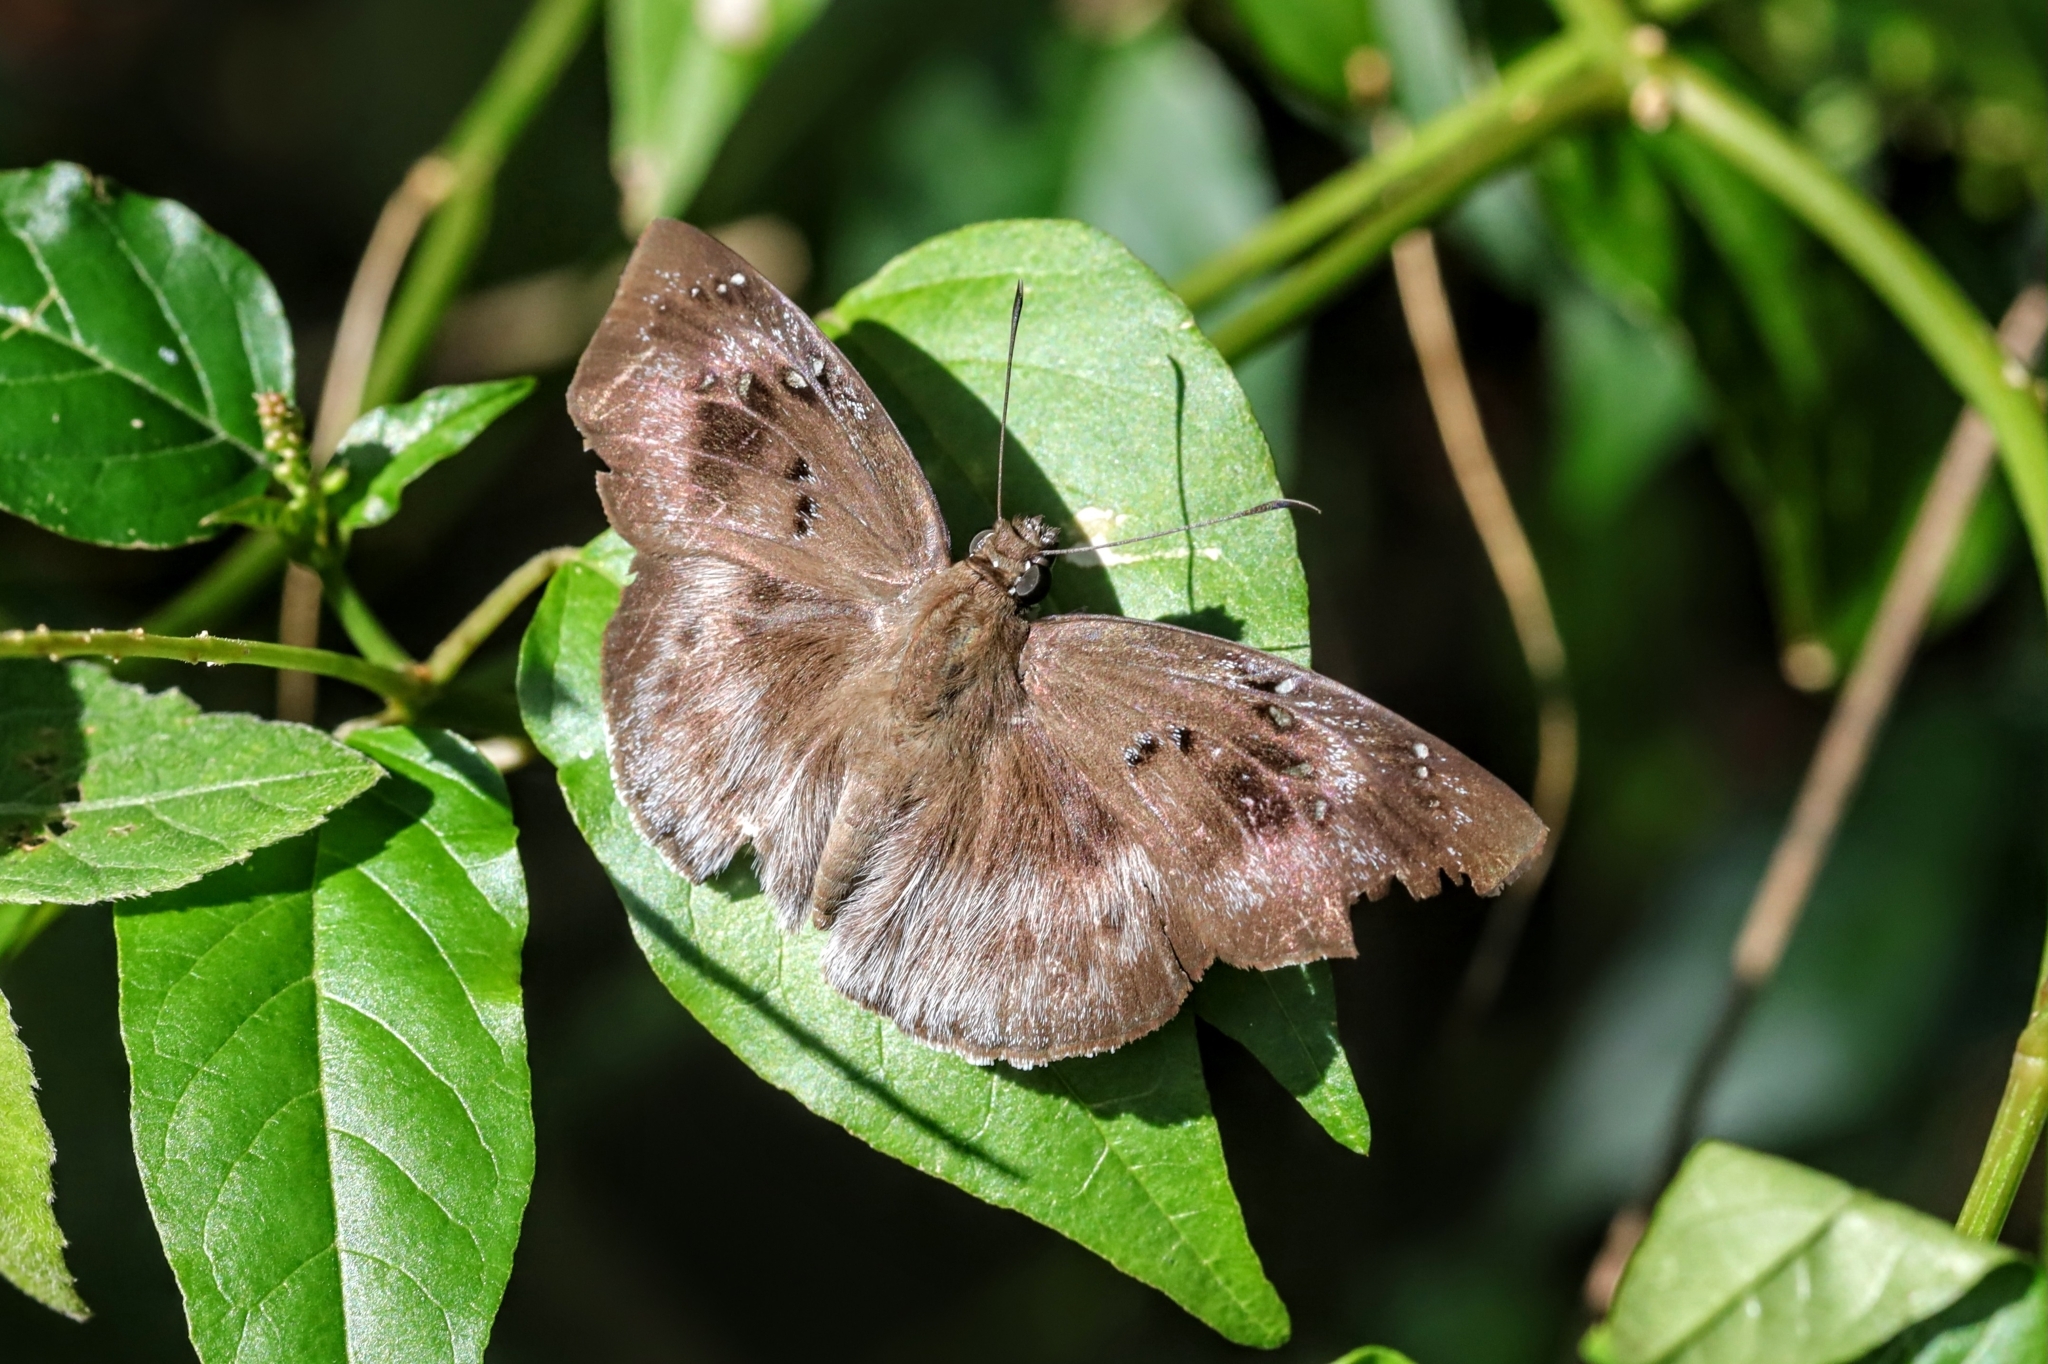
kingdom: Animalia
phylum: Arthropoda
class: Insecta
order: Lepidoptera
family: Hesperiidae
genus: Tagiades
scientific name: Tagiades flesus
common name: Clouded flat
